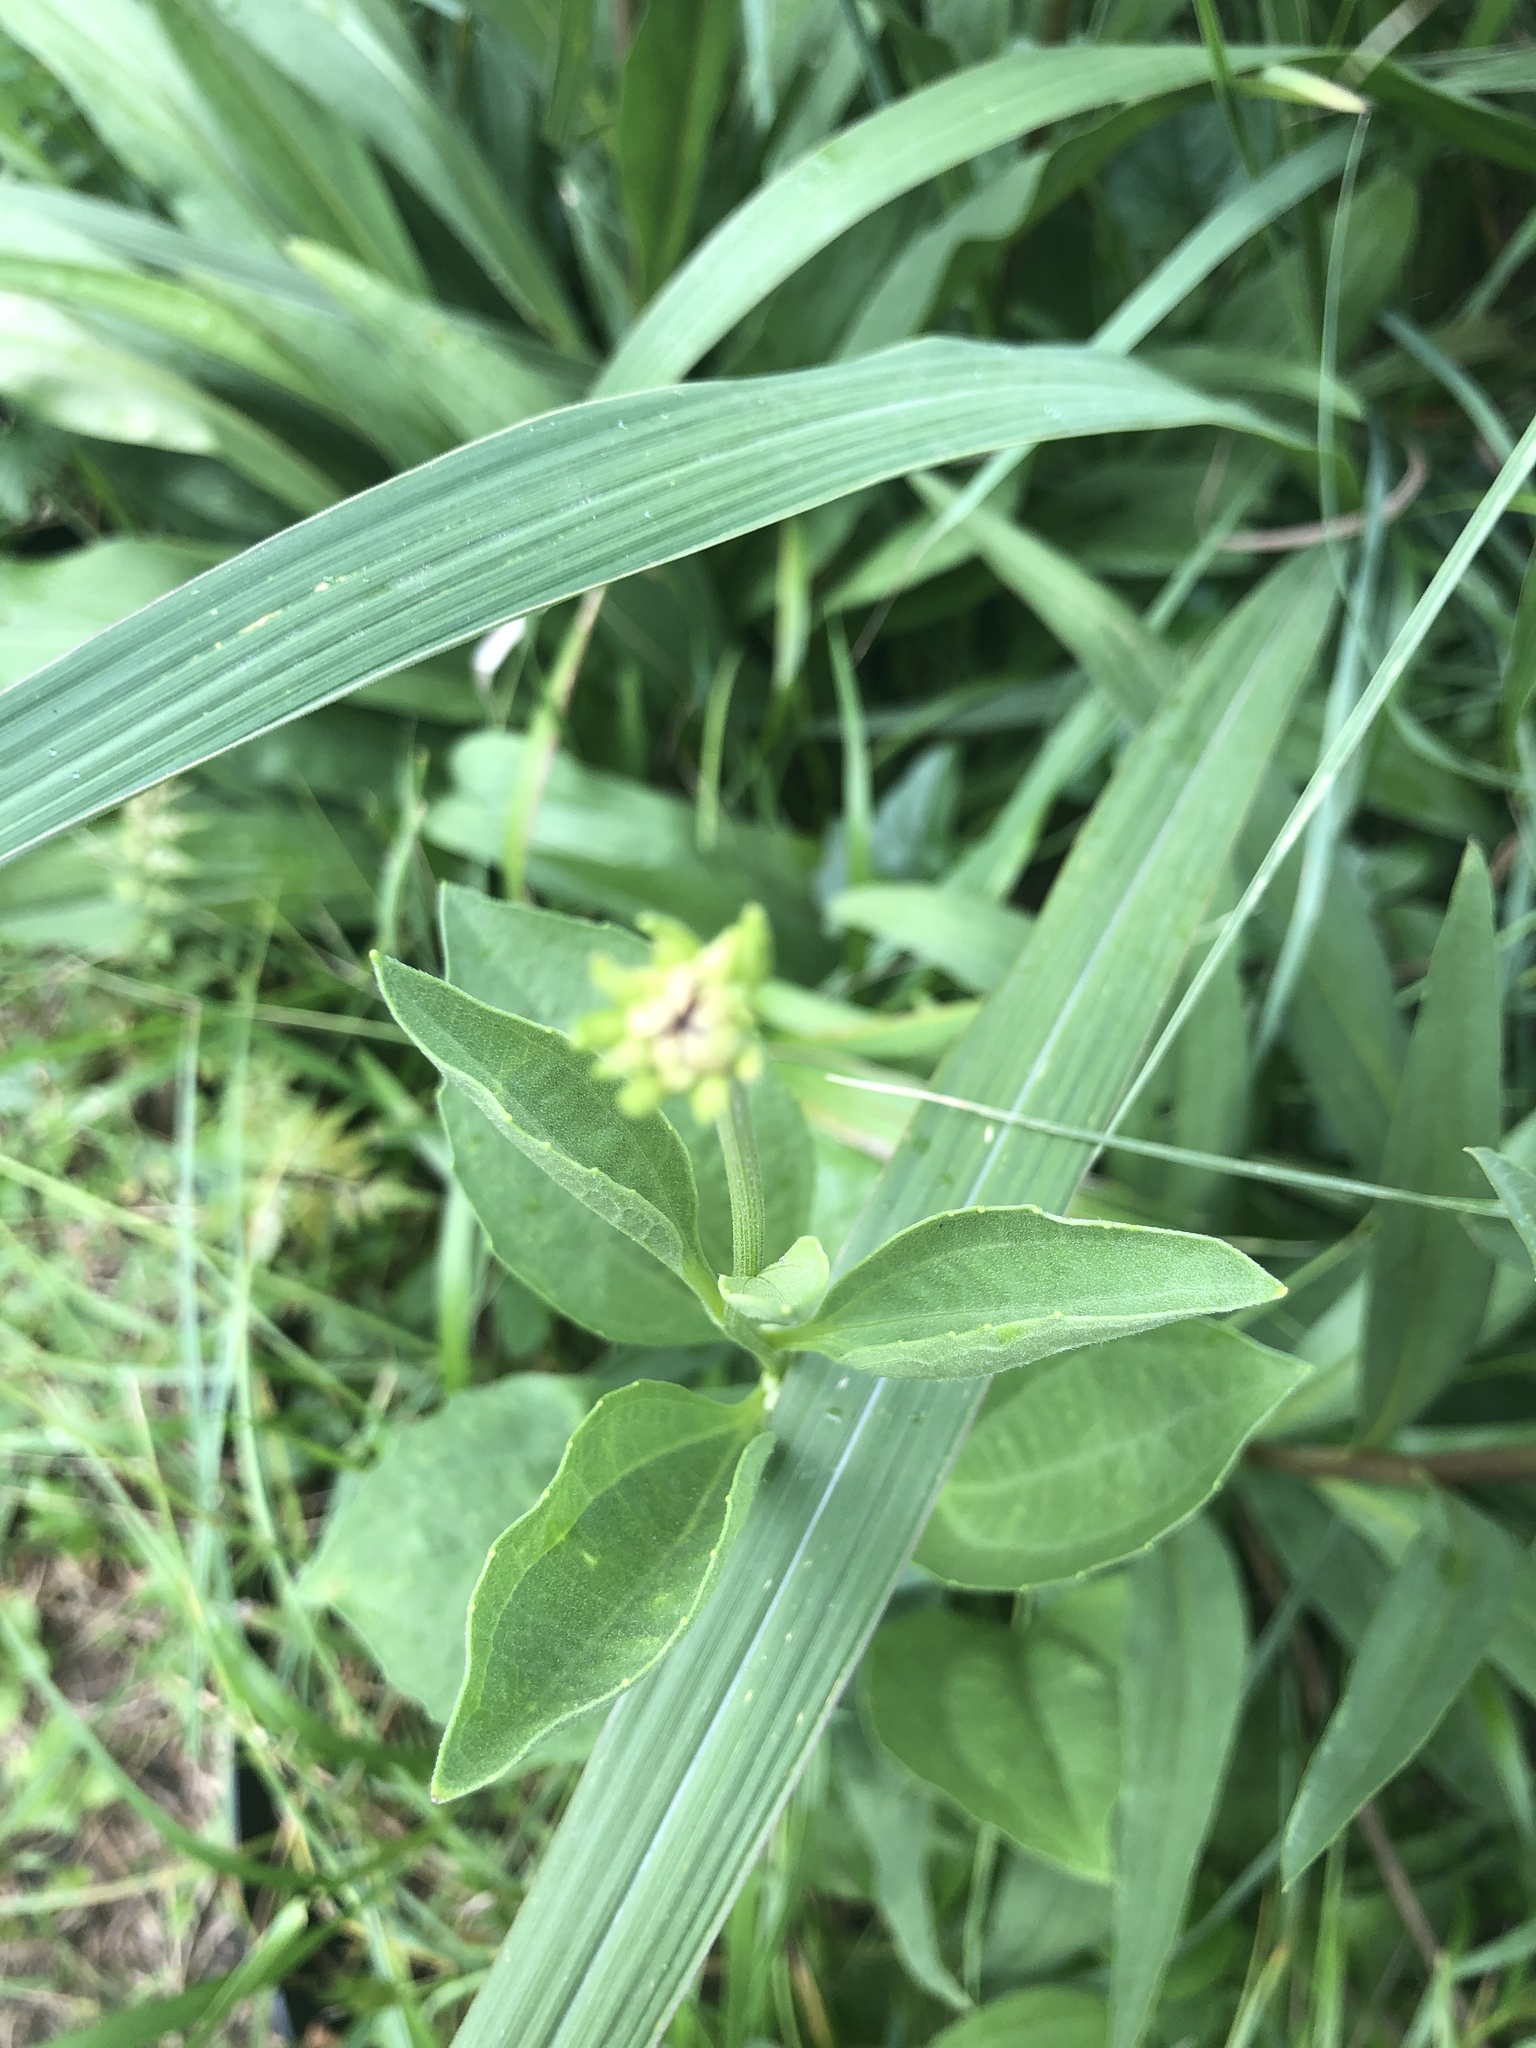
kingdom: Plantae
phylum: Tracheophyta
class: Magnoliopsida
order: Asterales
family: Asteraceae
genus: Rudbeckia
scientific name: Rudbeckia grandiflora
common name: Large-flowered coneflower
